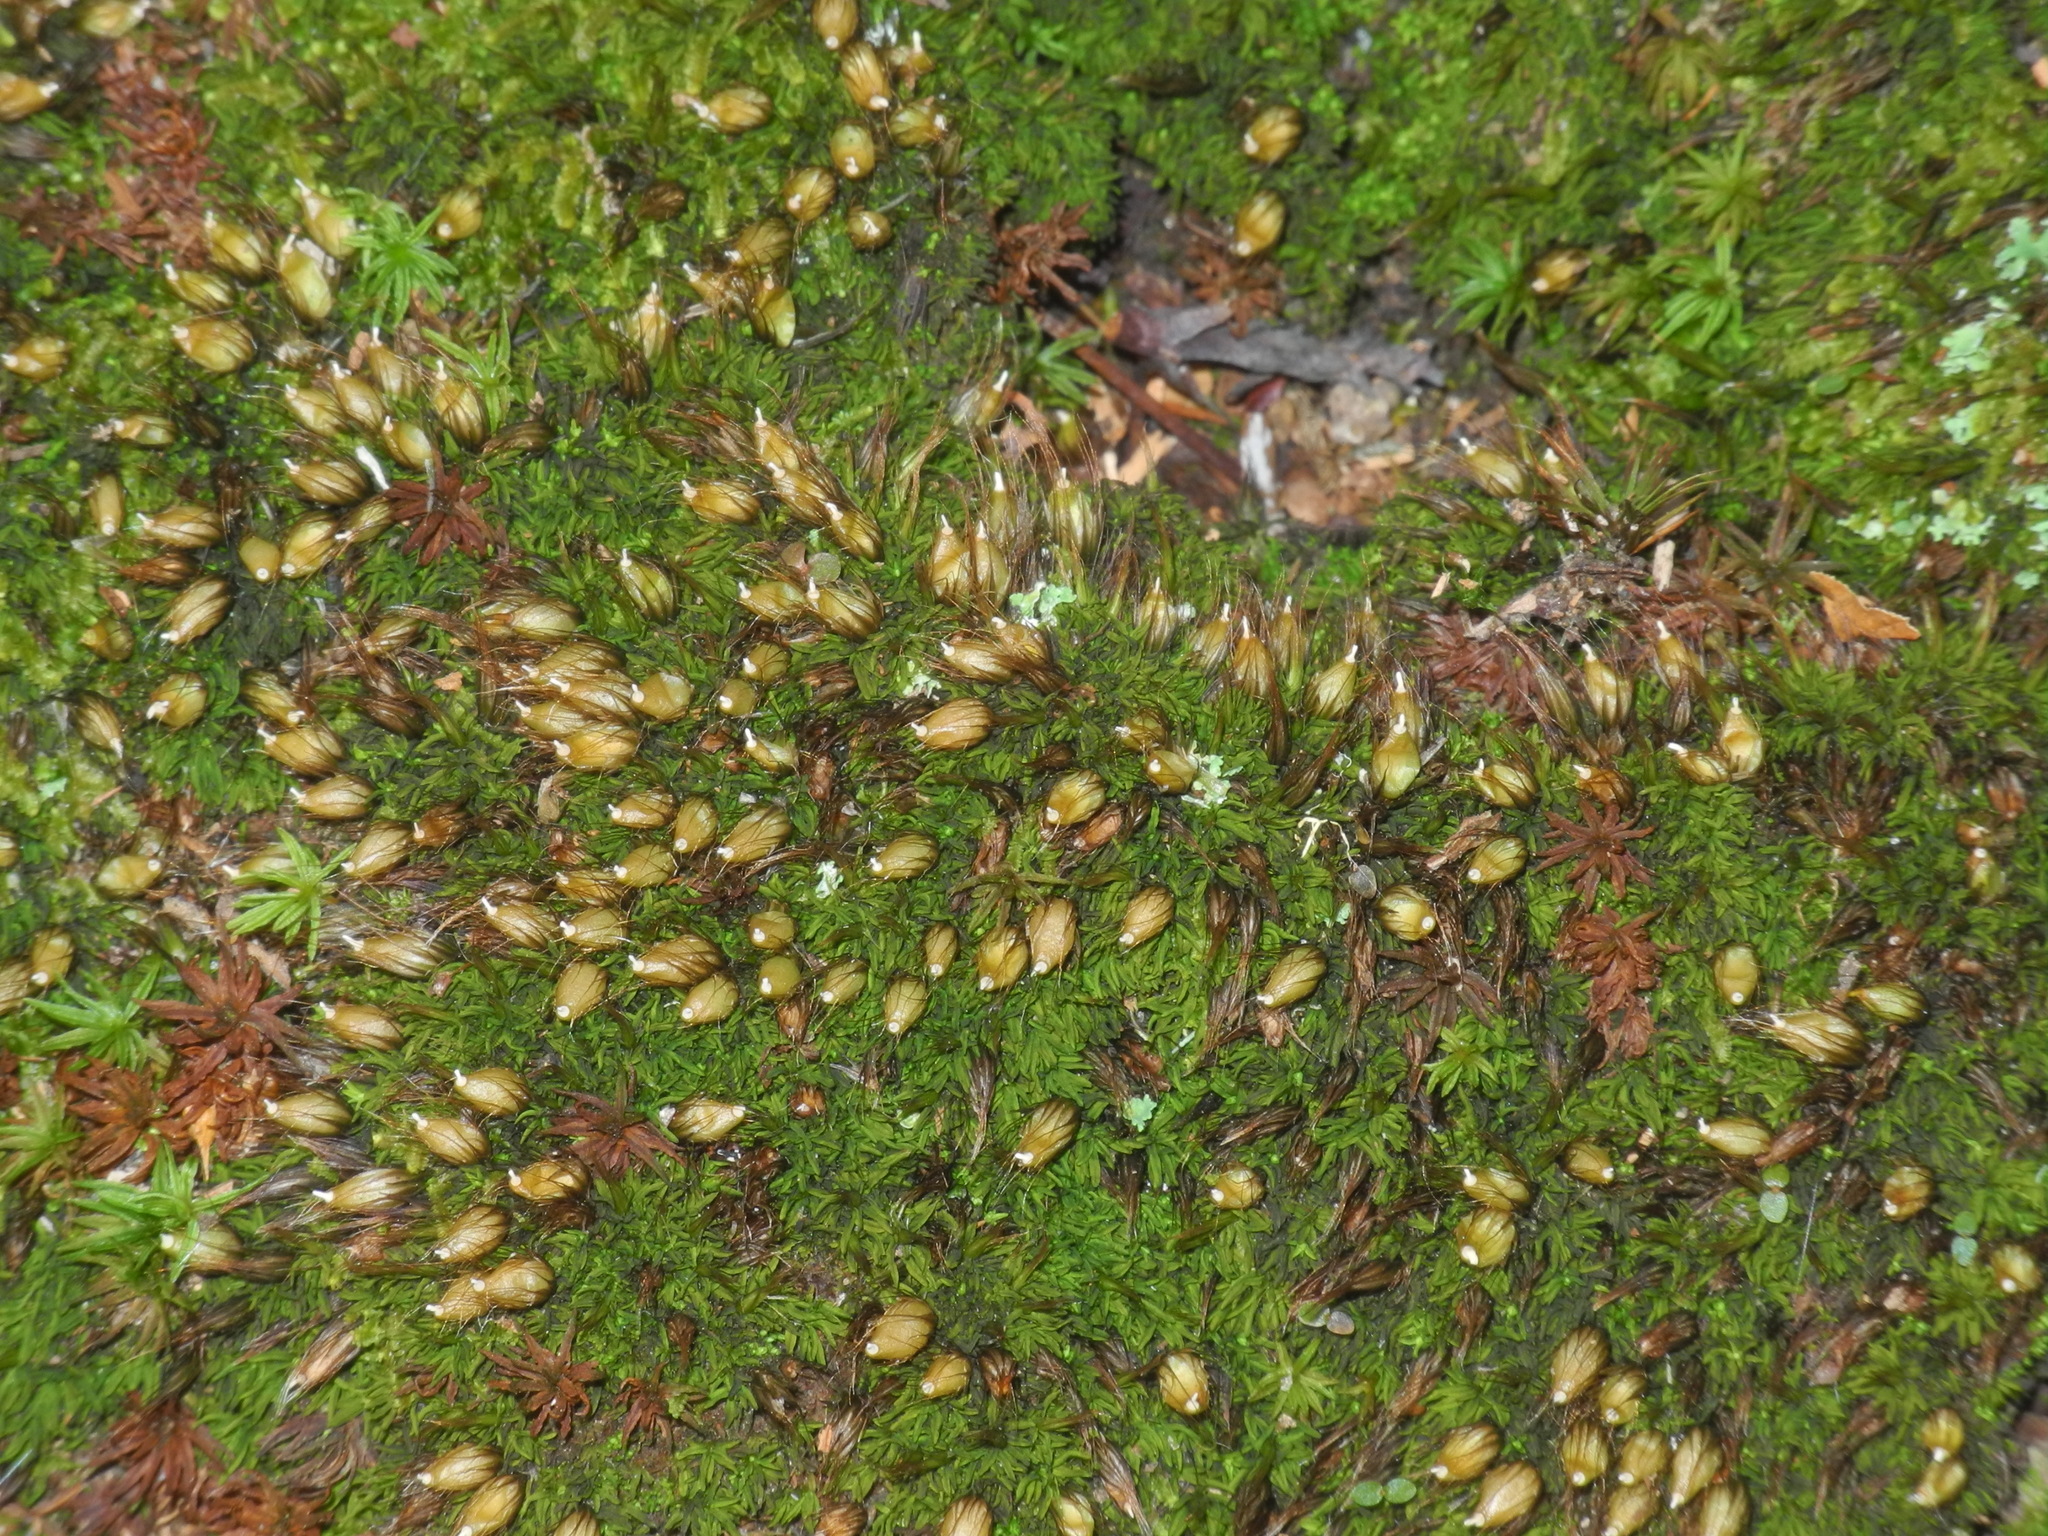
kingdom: Plantae
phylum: Bryophyta
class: Bryopsida
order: Diphysciales
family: Diphysciaceae
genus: Diphyscium
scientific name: Diphyscium foliosum
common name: Nut moss
